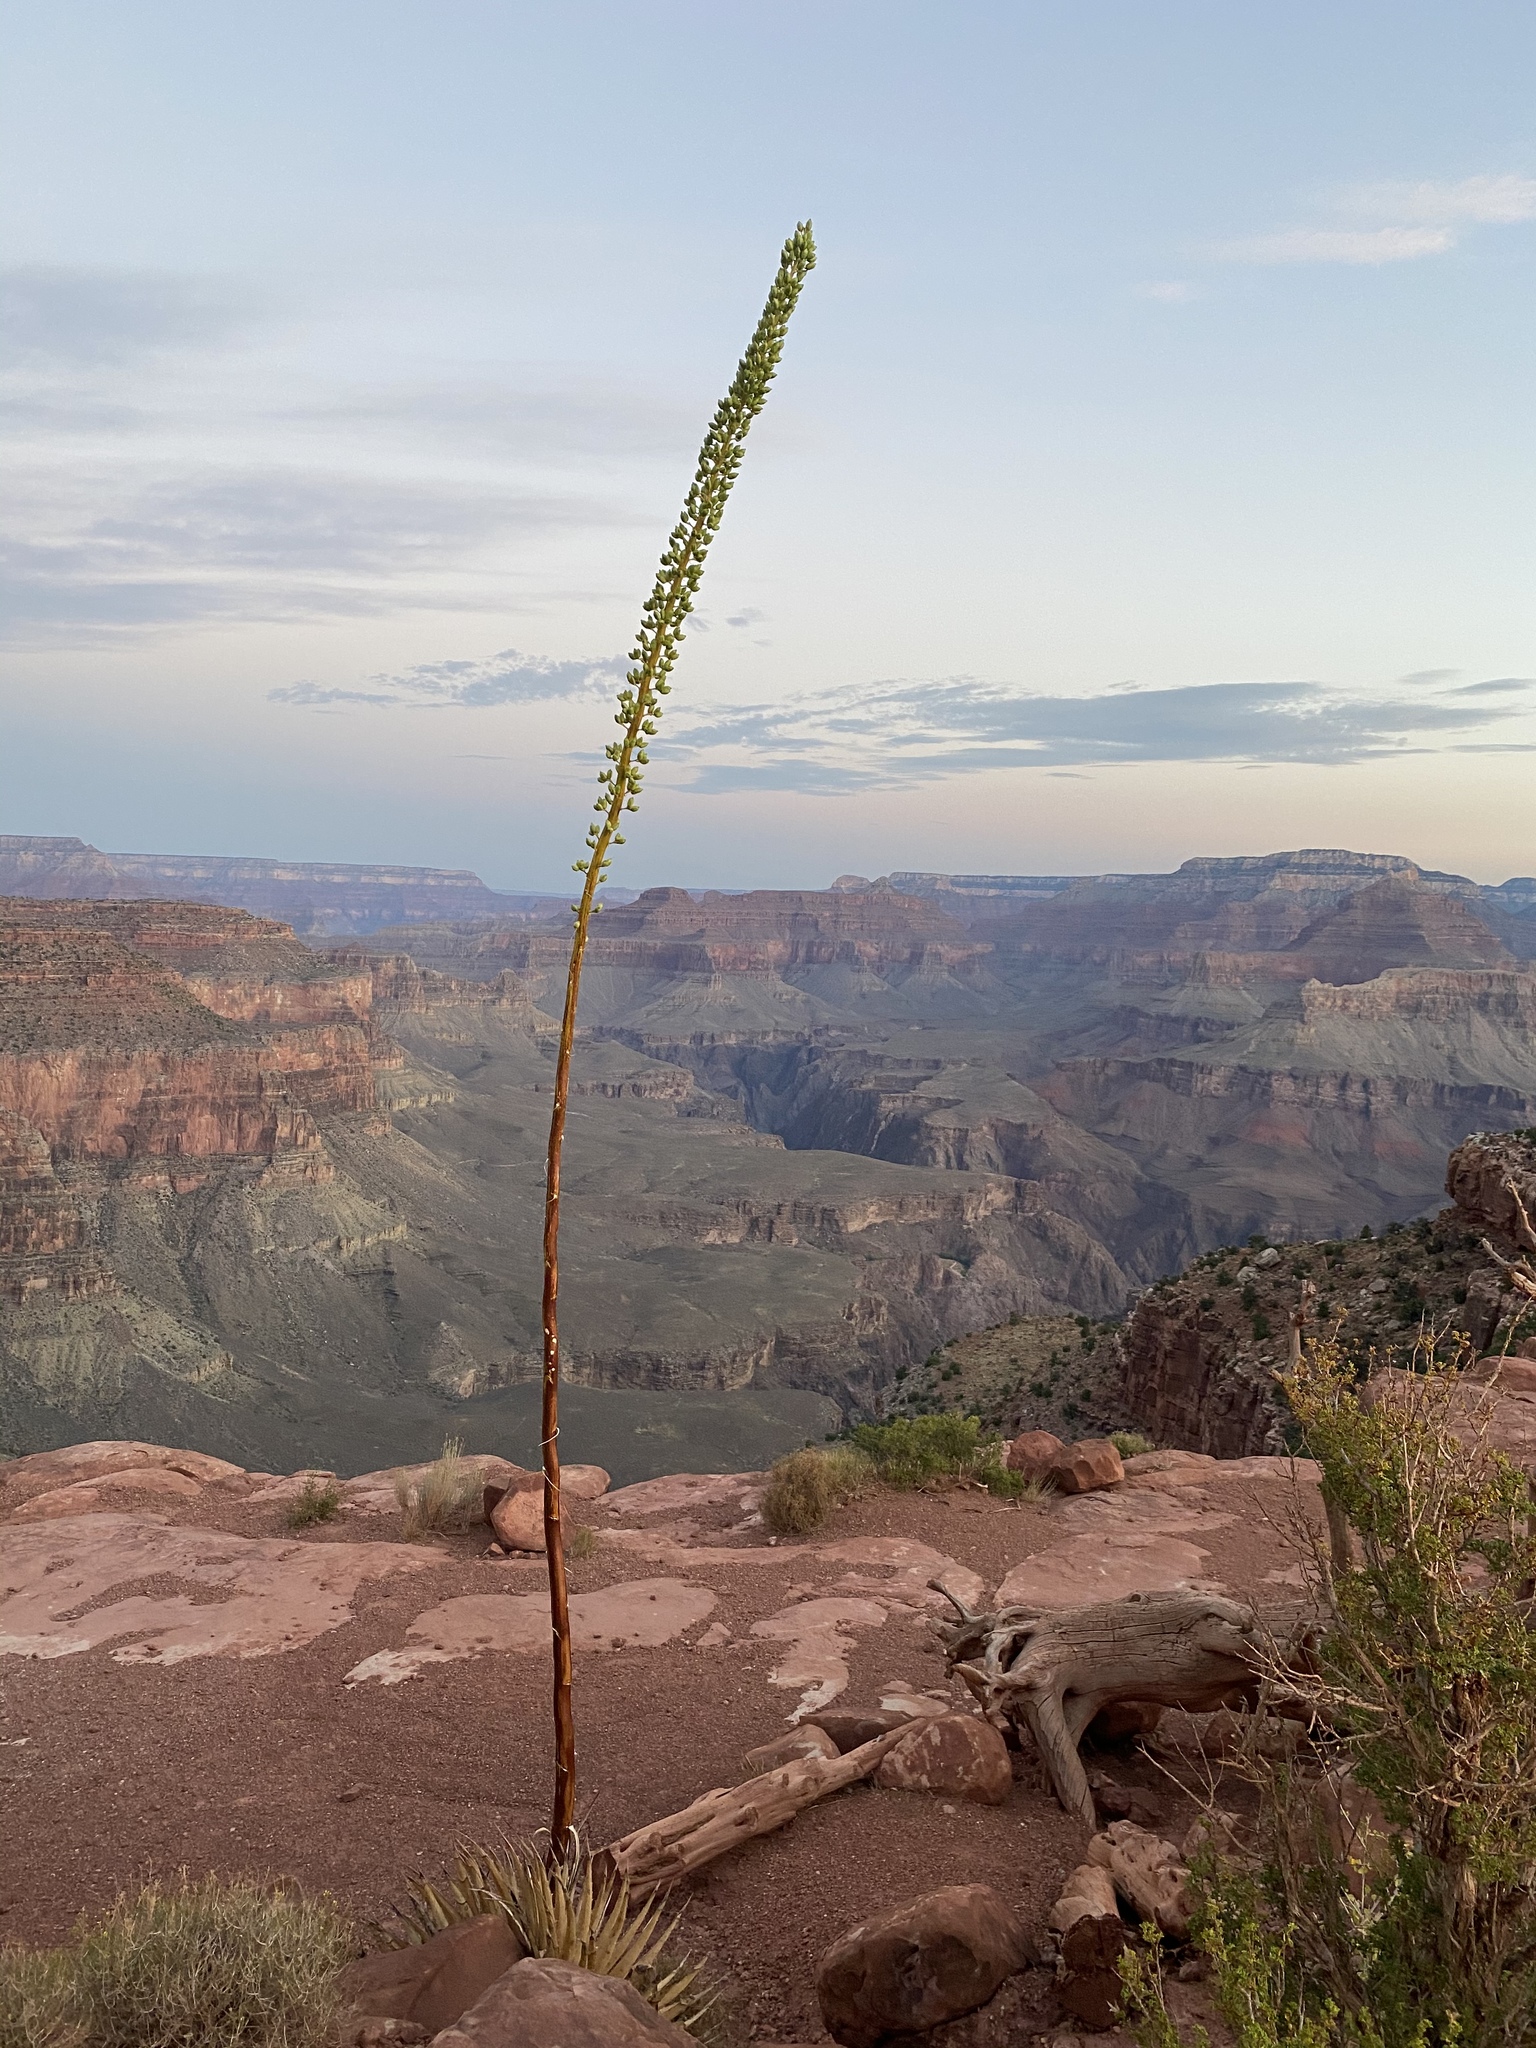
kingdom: Plantae
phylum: Tracheophyta
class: Liliopsida
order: Asparagales
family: Asparagaceae
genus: Agave
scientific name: Agave utahensis
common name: Utah agave
